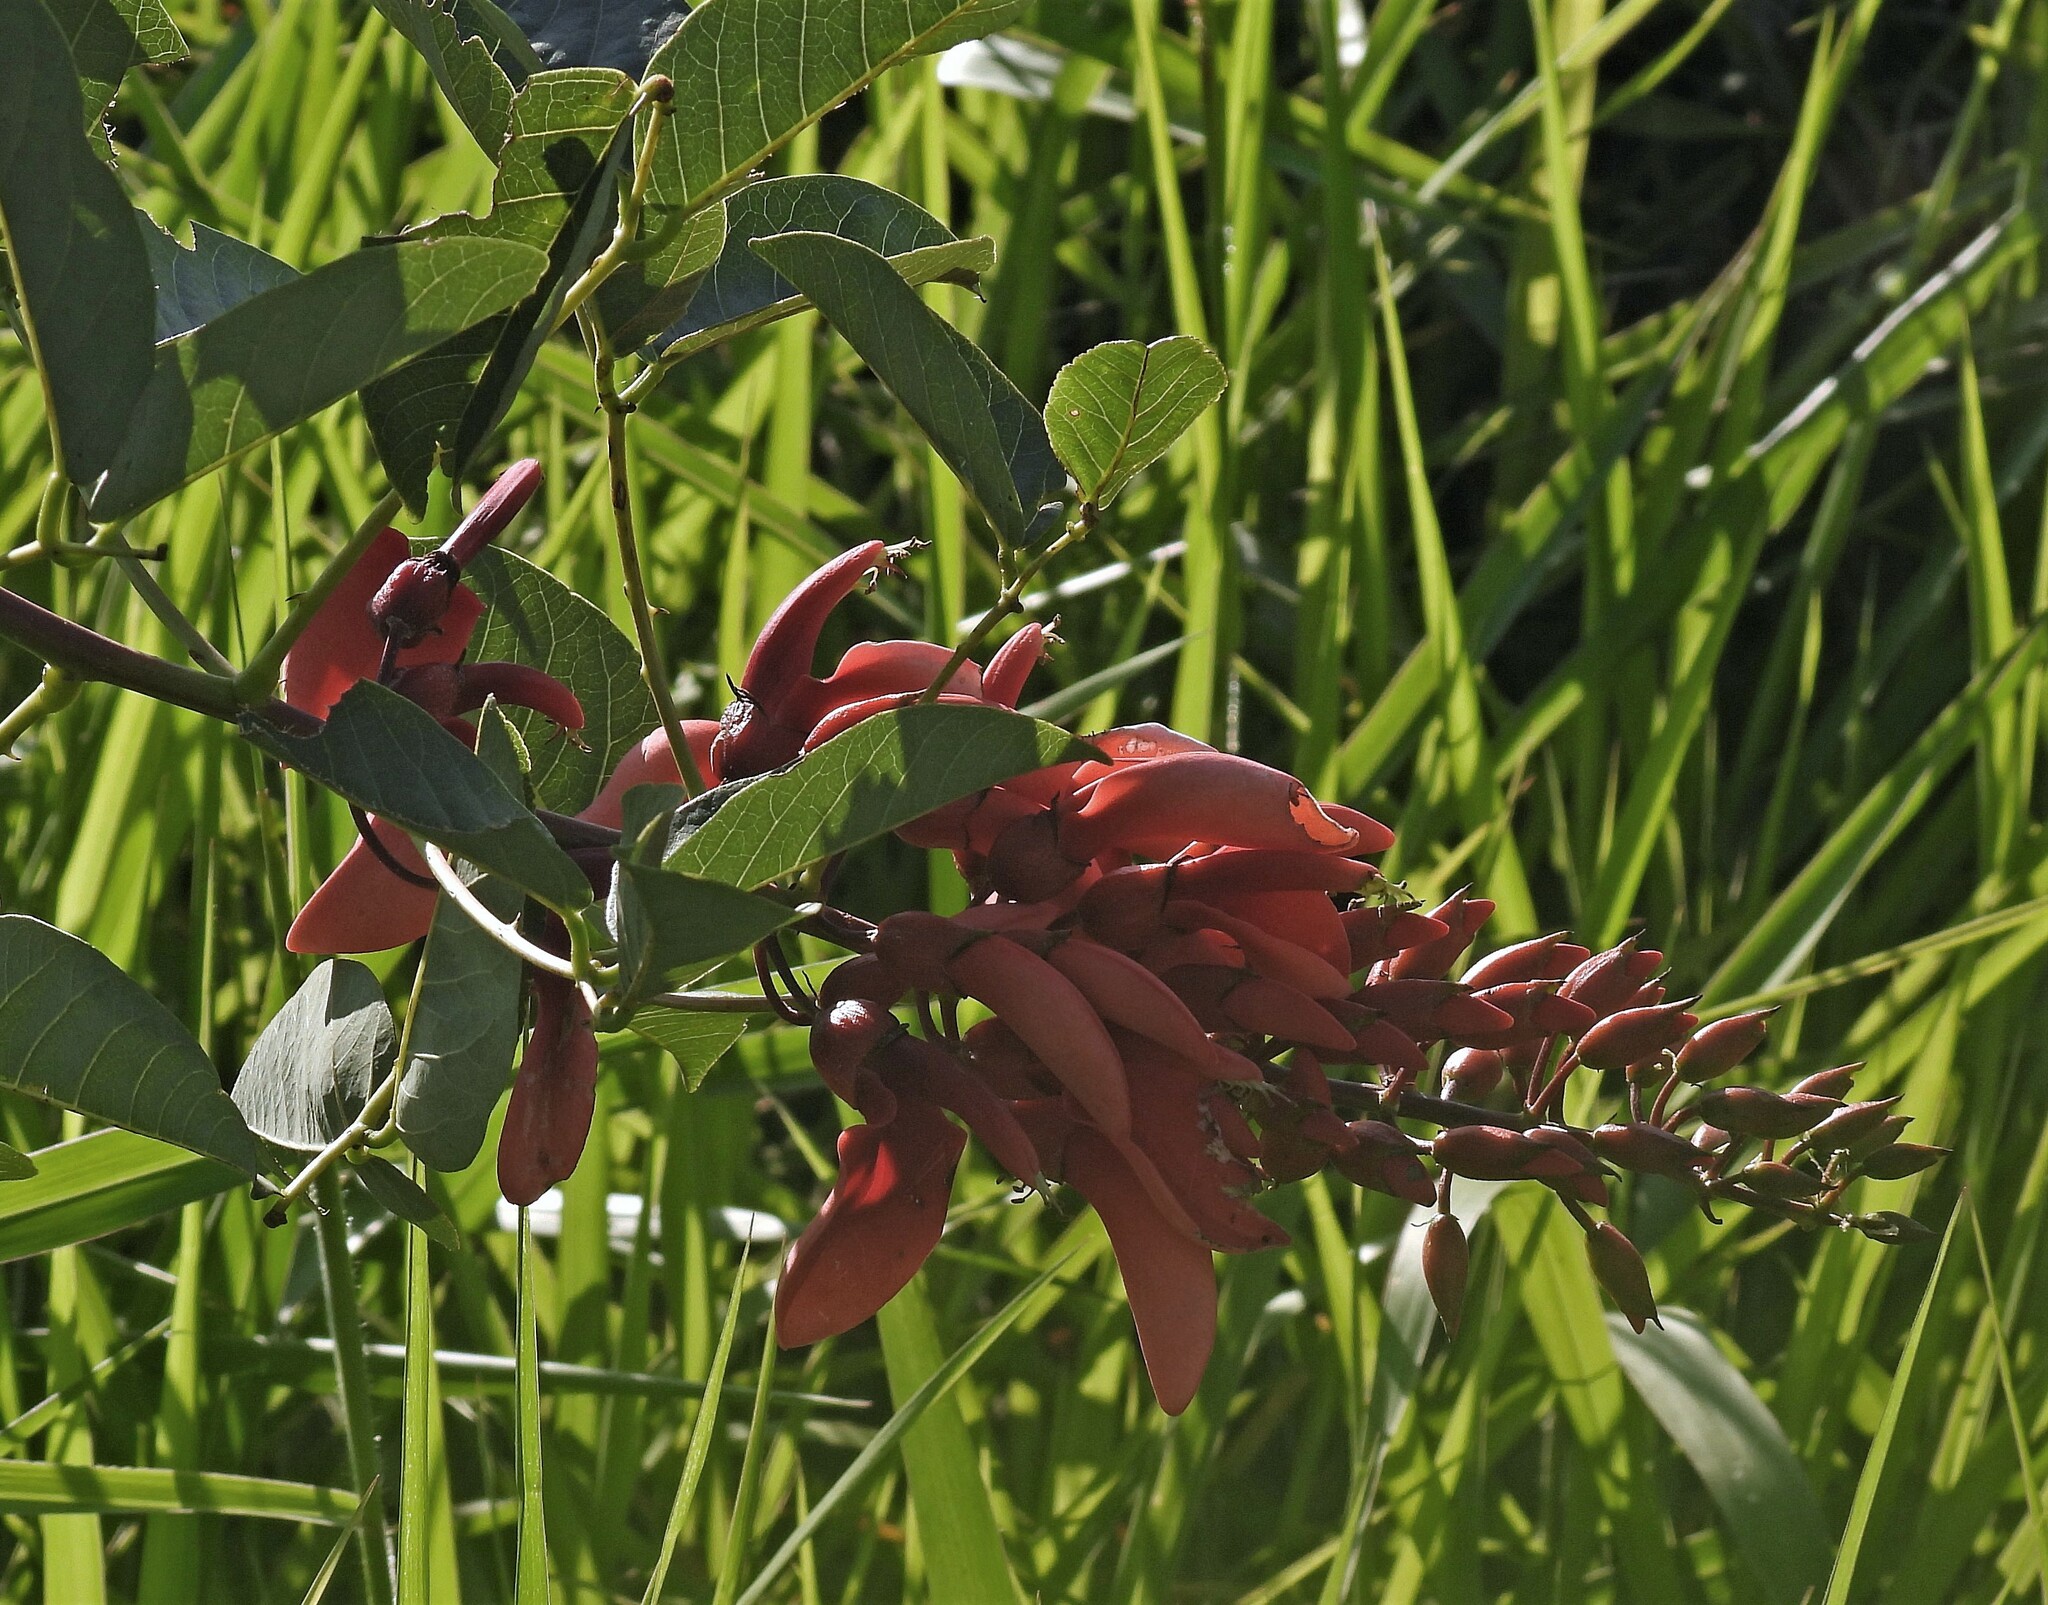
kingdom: Plantae
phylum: Tracheophyta
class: Magnoliopsida
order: Fabales
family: Fabaceae
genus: Erythrina
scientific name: Erythrina crista-galli
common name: Cockspur coral tree
